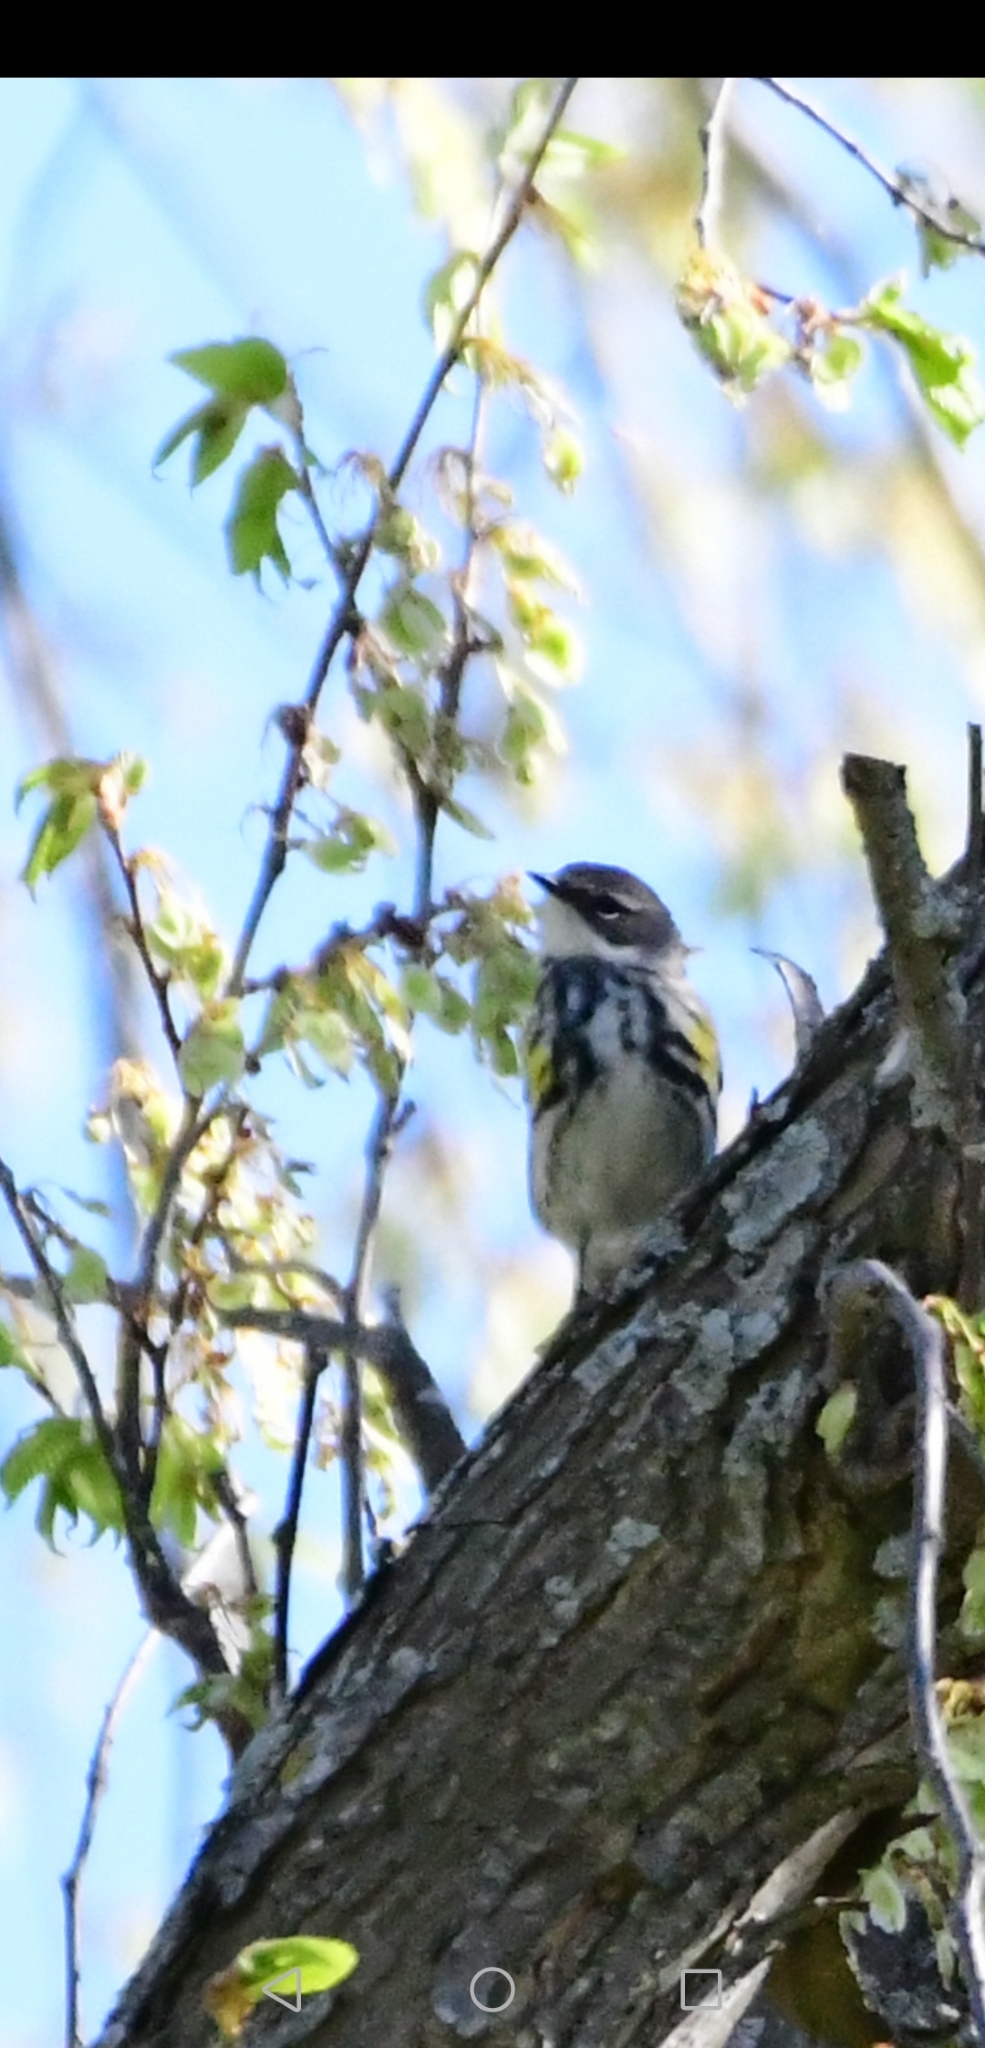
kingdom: Animalia
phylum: Chordata
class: Aves
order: Passeriformes
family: Parulidae
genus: Setophaga
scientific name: Setophaga coronata
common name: Myrtle warbler
